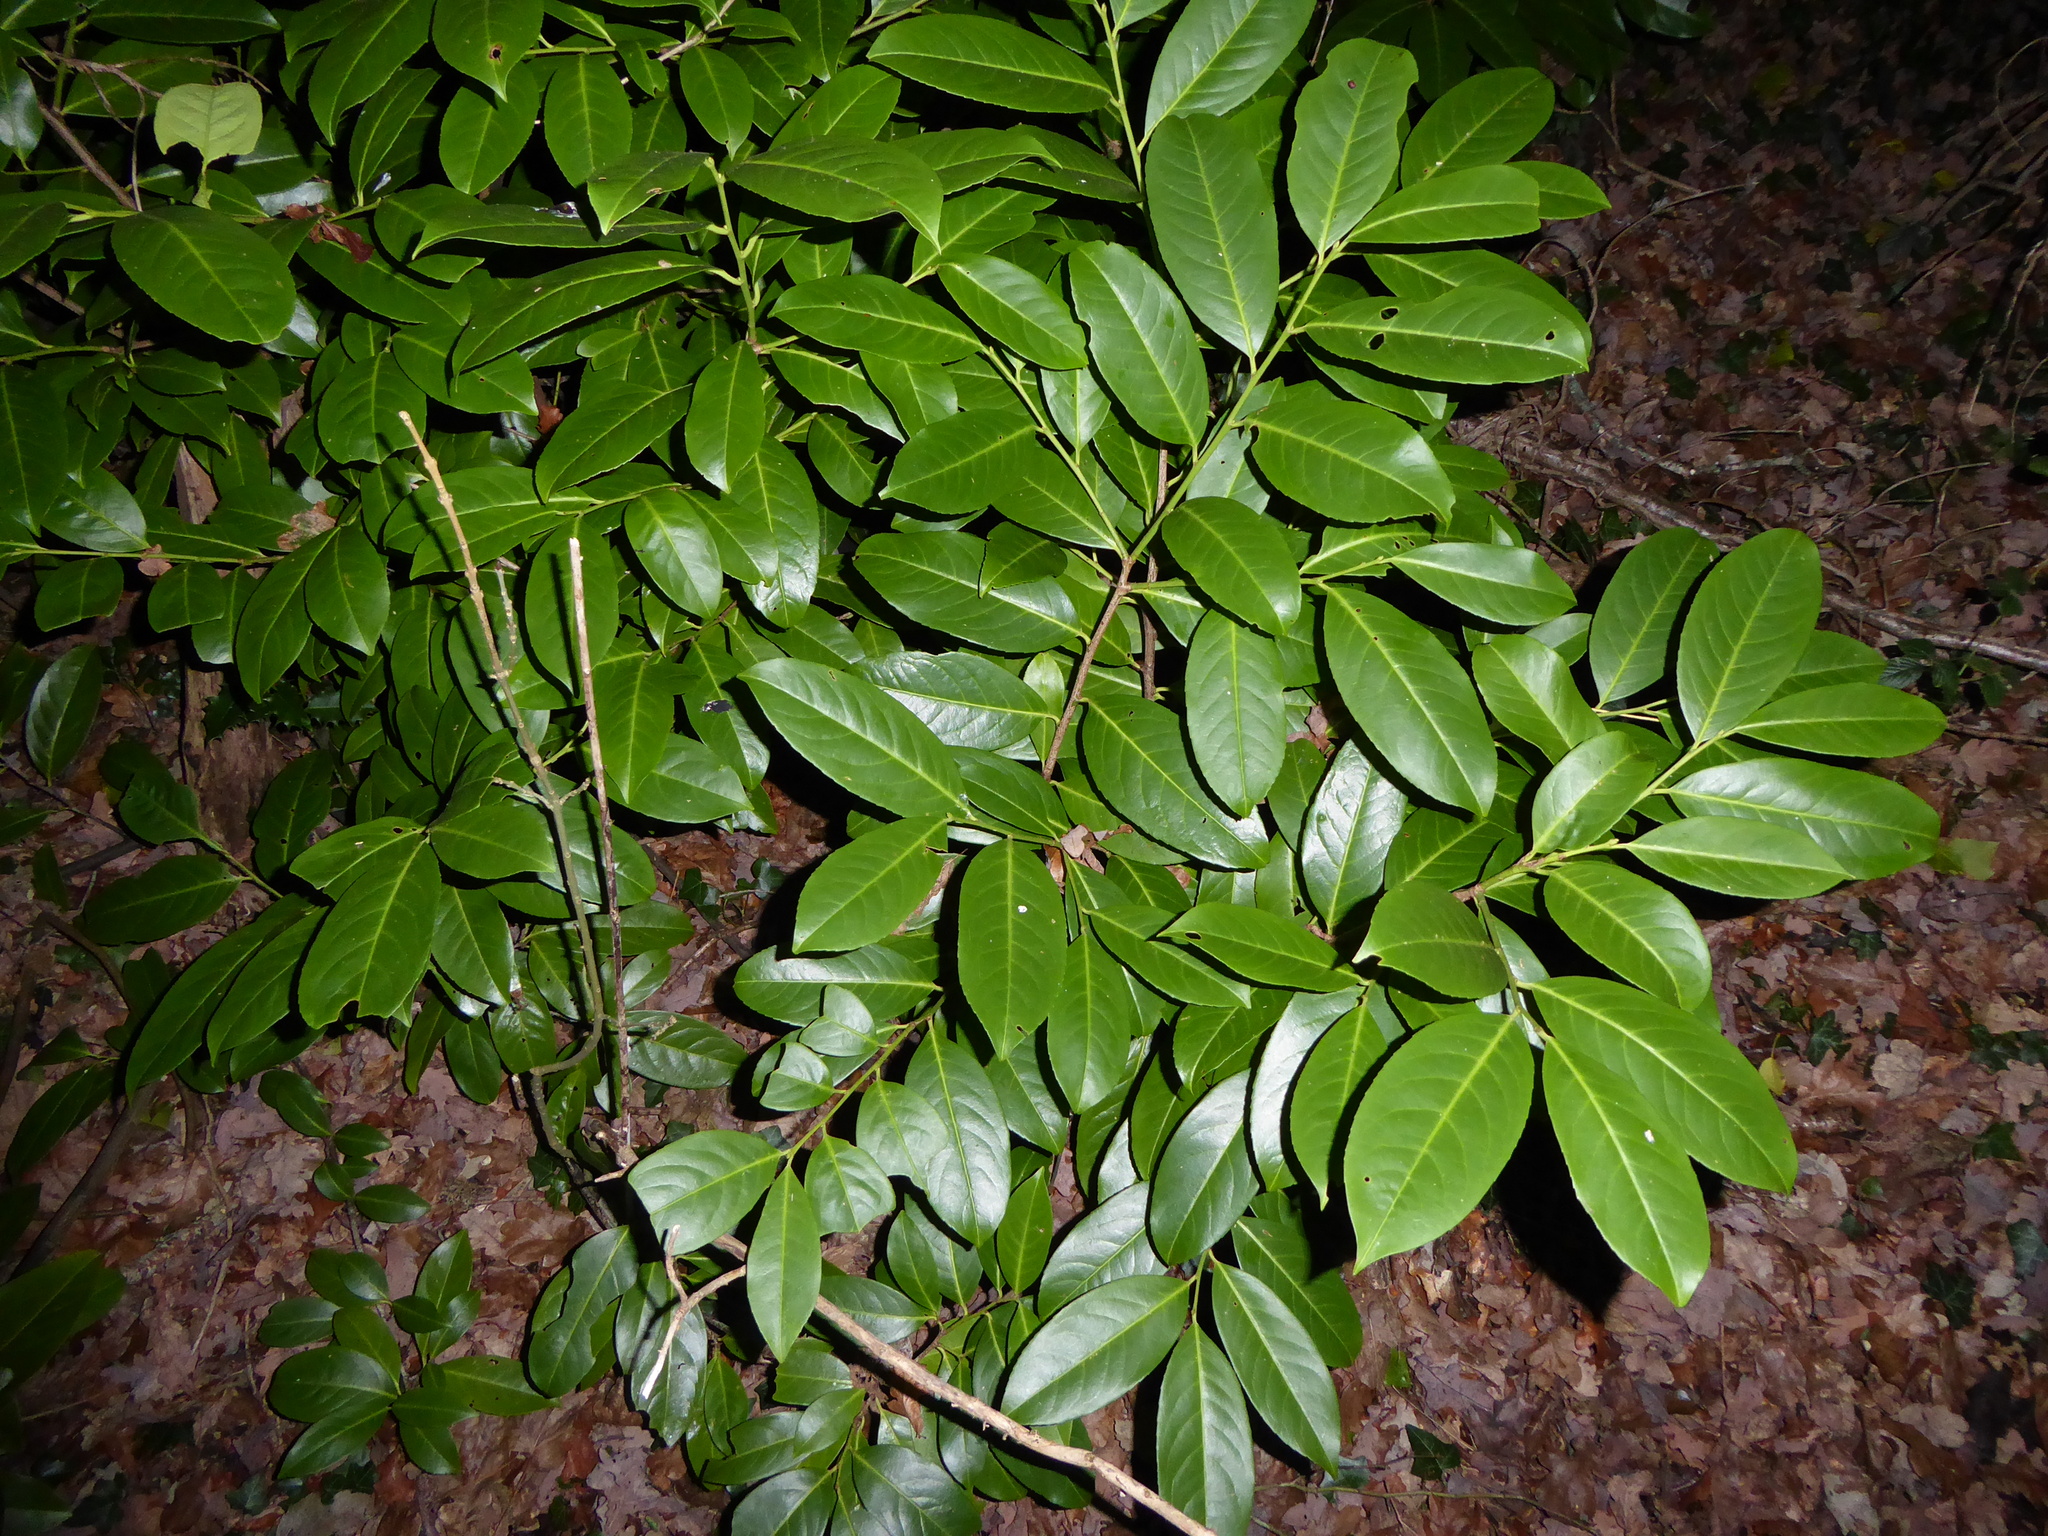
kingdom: Plantae
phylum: Tracheophyta
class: Magnoliopsida
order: Rosales
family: Rosaceae
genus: Prunus
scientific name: Prunus laurocerasus
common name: Cherry laurel
